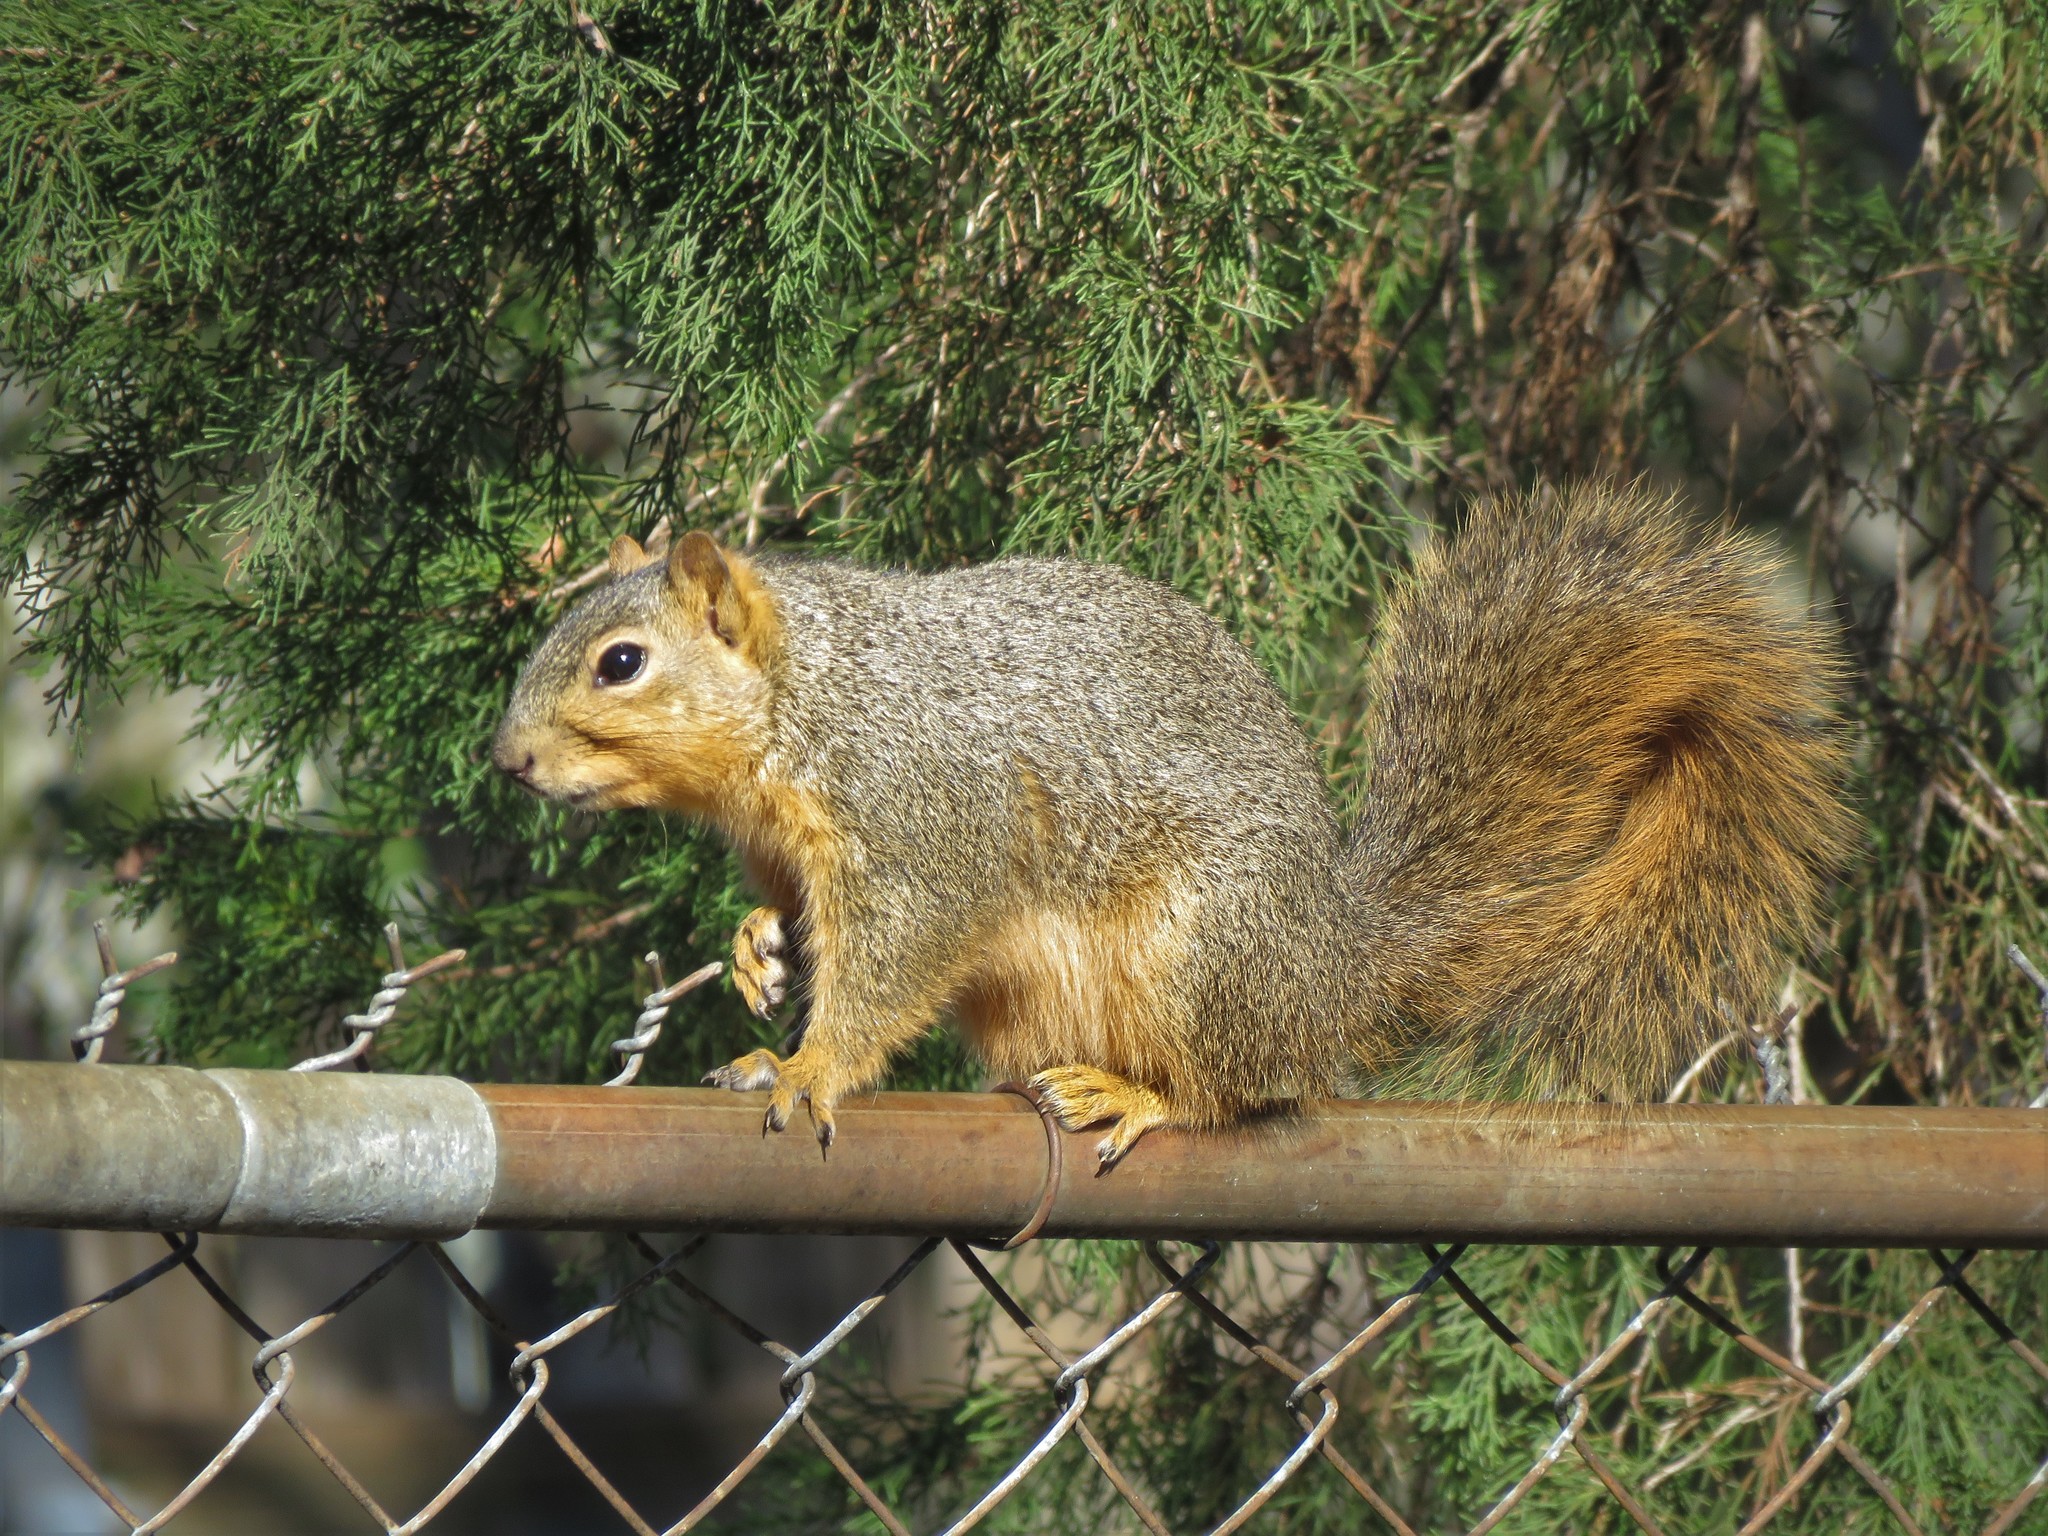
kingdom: Animalia
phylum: Chordata
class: Mammalia
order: Rodentia
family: Sciuridae
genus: Sciurus
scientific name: Sciurus niger
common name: Fox squirrel
